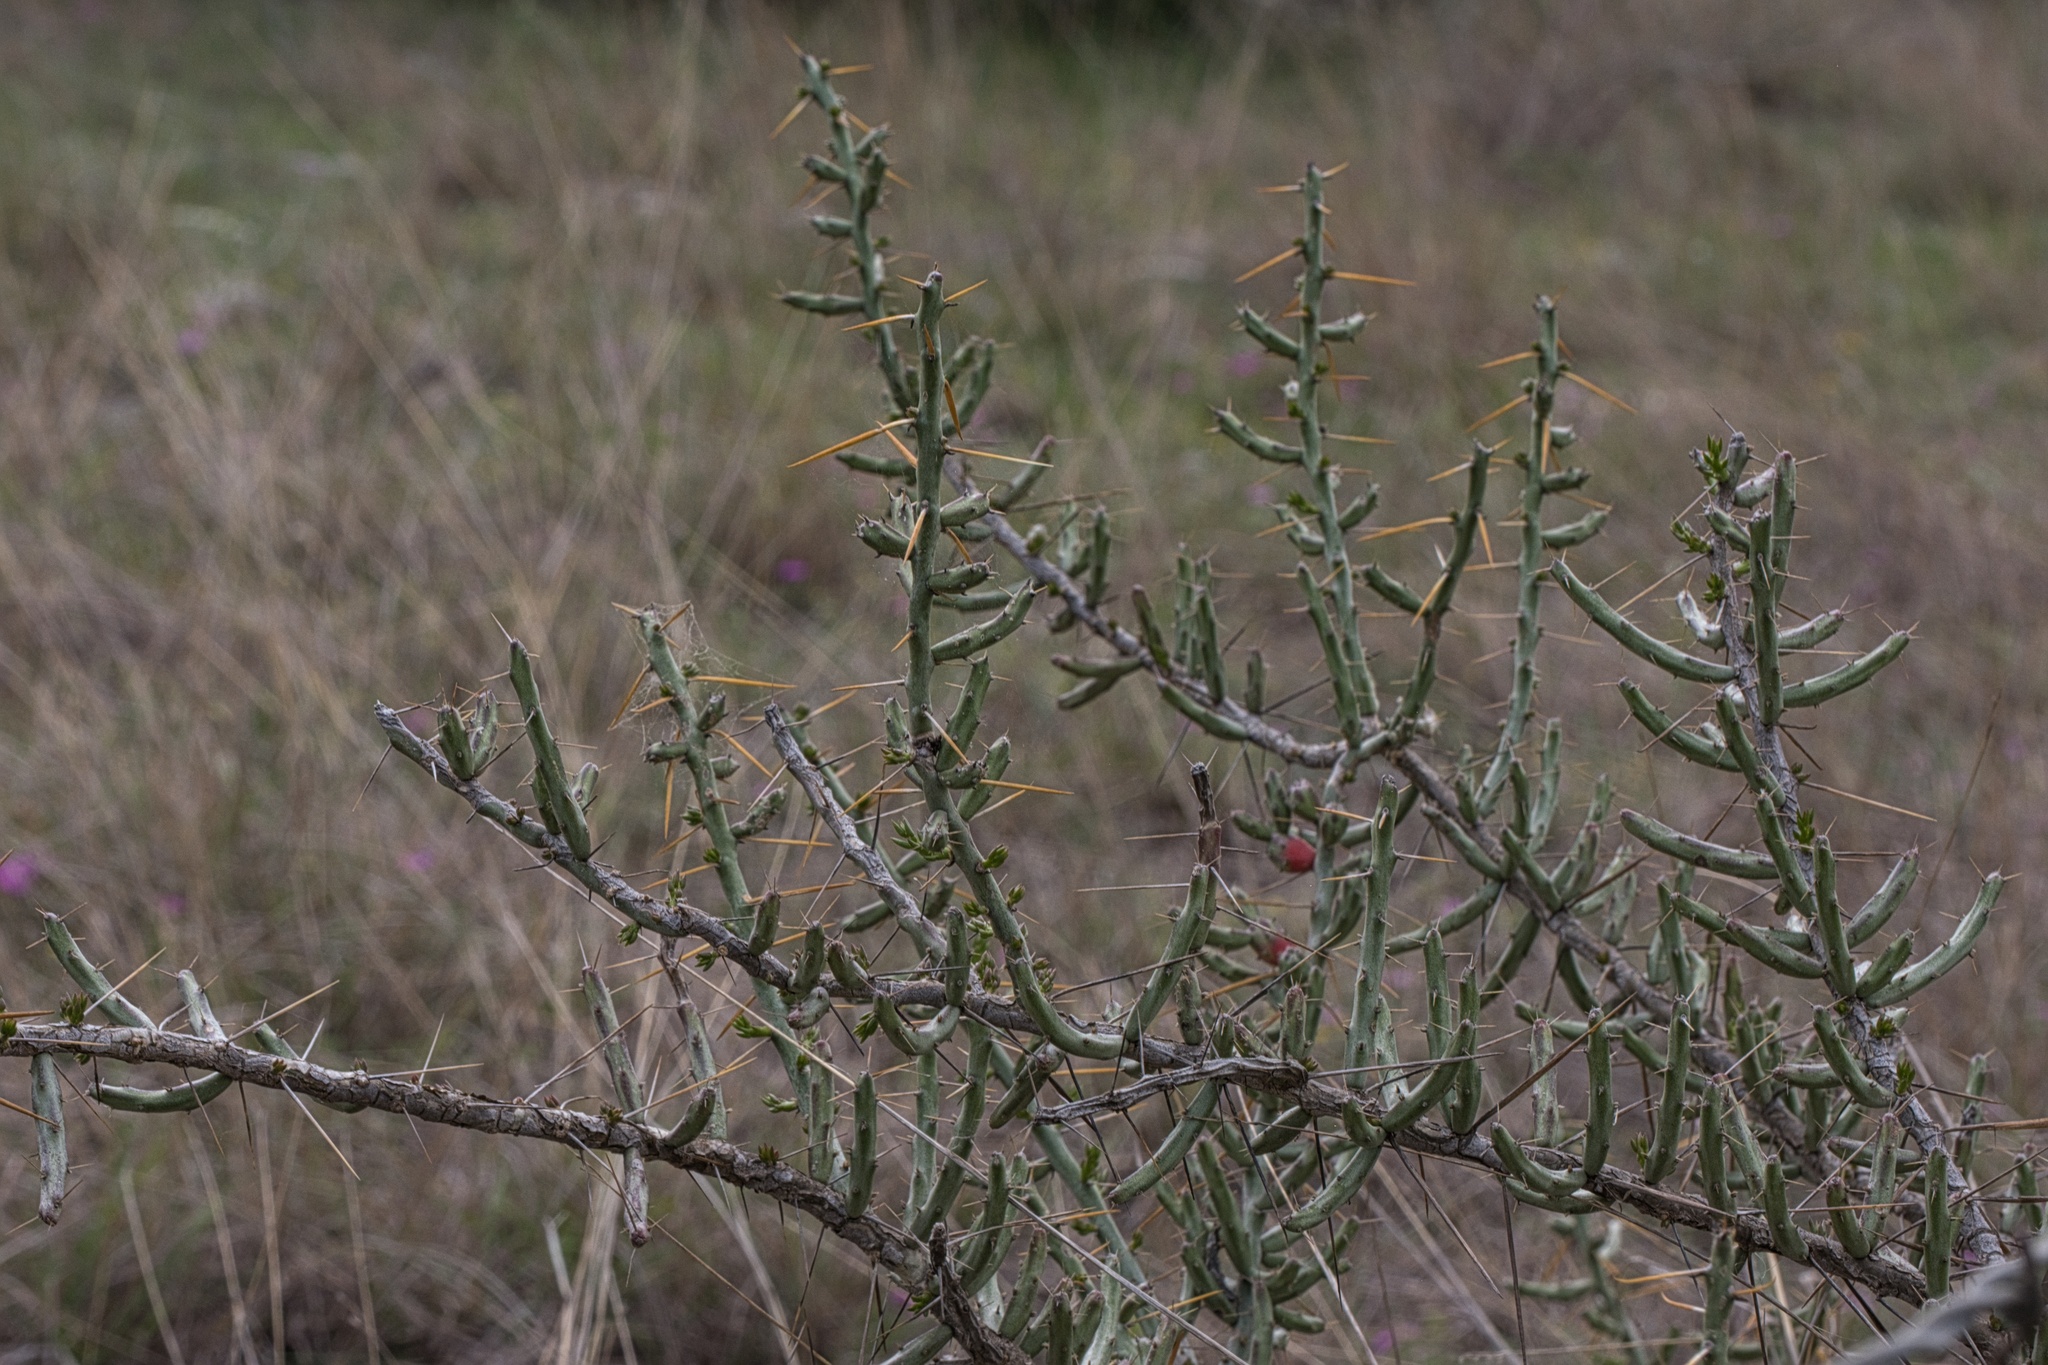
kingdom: Plantae
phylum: Tracheophyta
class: Magnoliopsida
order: Caryophyllales
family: Cactaceae
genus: Cylindropuntia
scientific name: Cylindropuntia leptocaulis
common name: Christmas cactus
